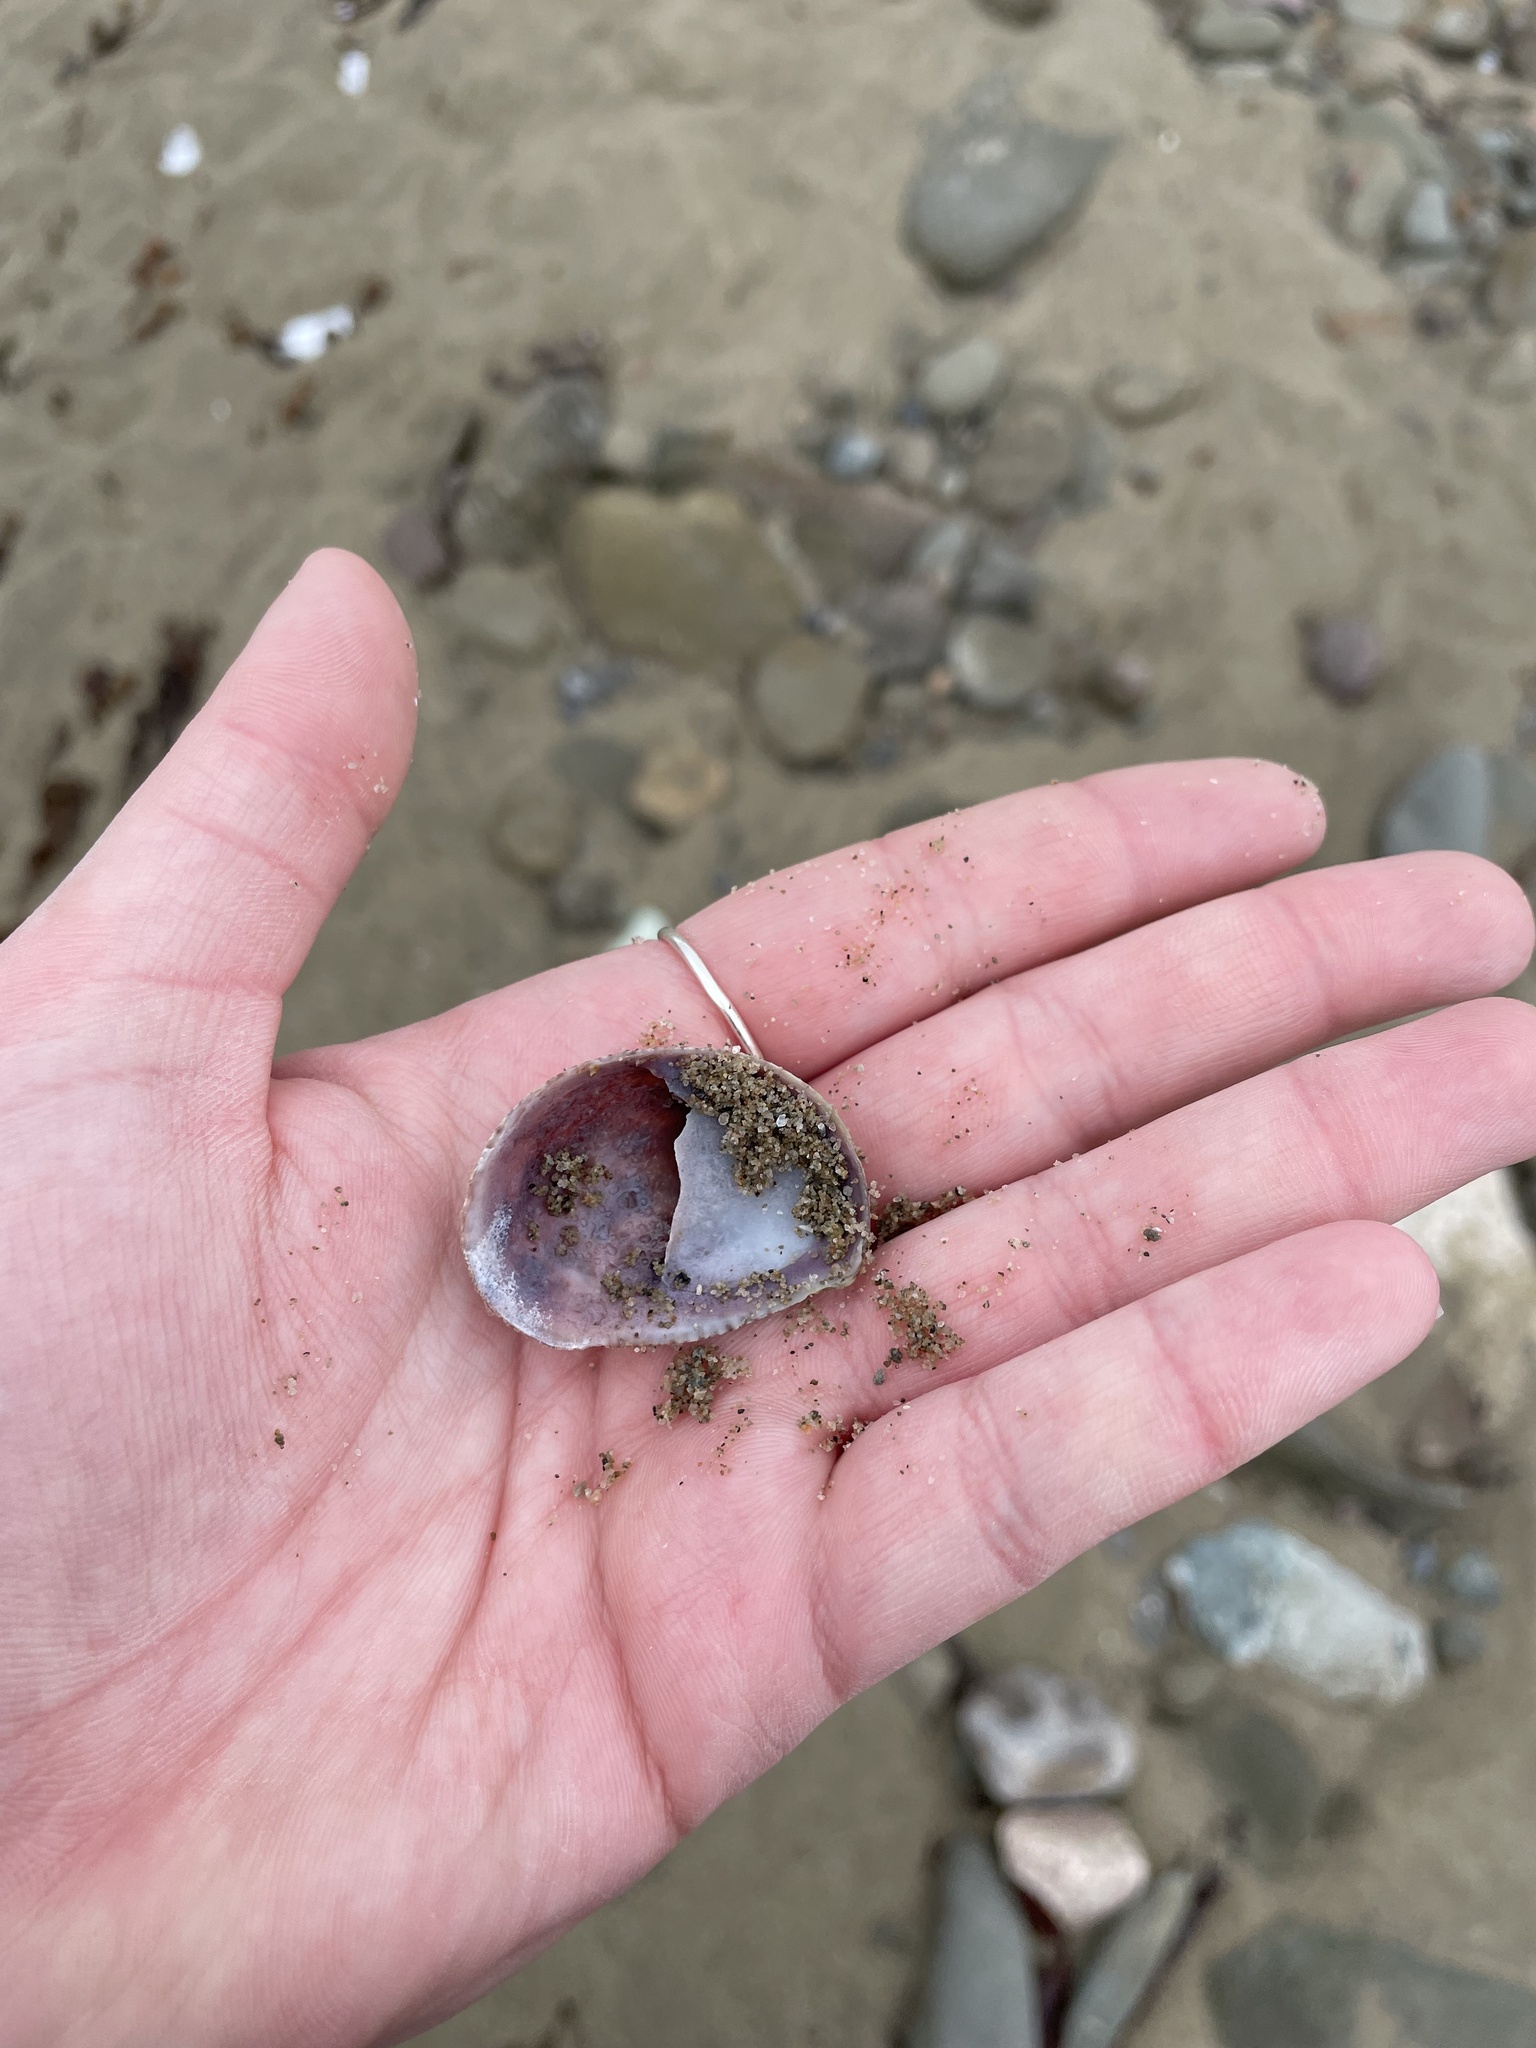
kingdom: Animalia
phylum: Mollusca
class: Gastropoda
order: Littorinimorpha
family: Calyptraeidae
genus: Crepidula
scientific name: Crepidula fornicata
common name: Slipper limpet
